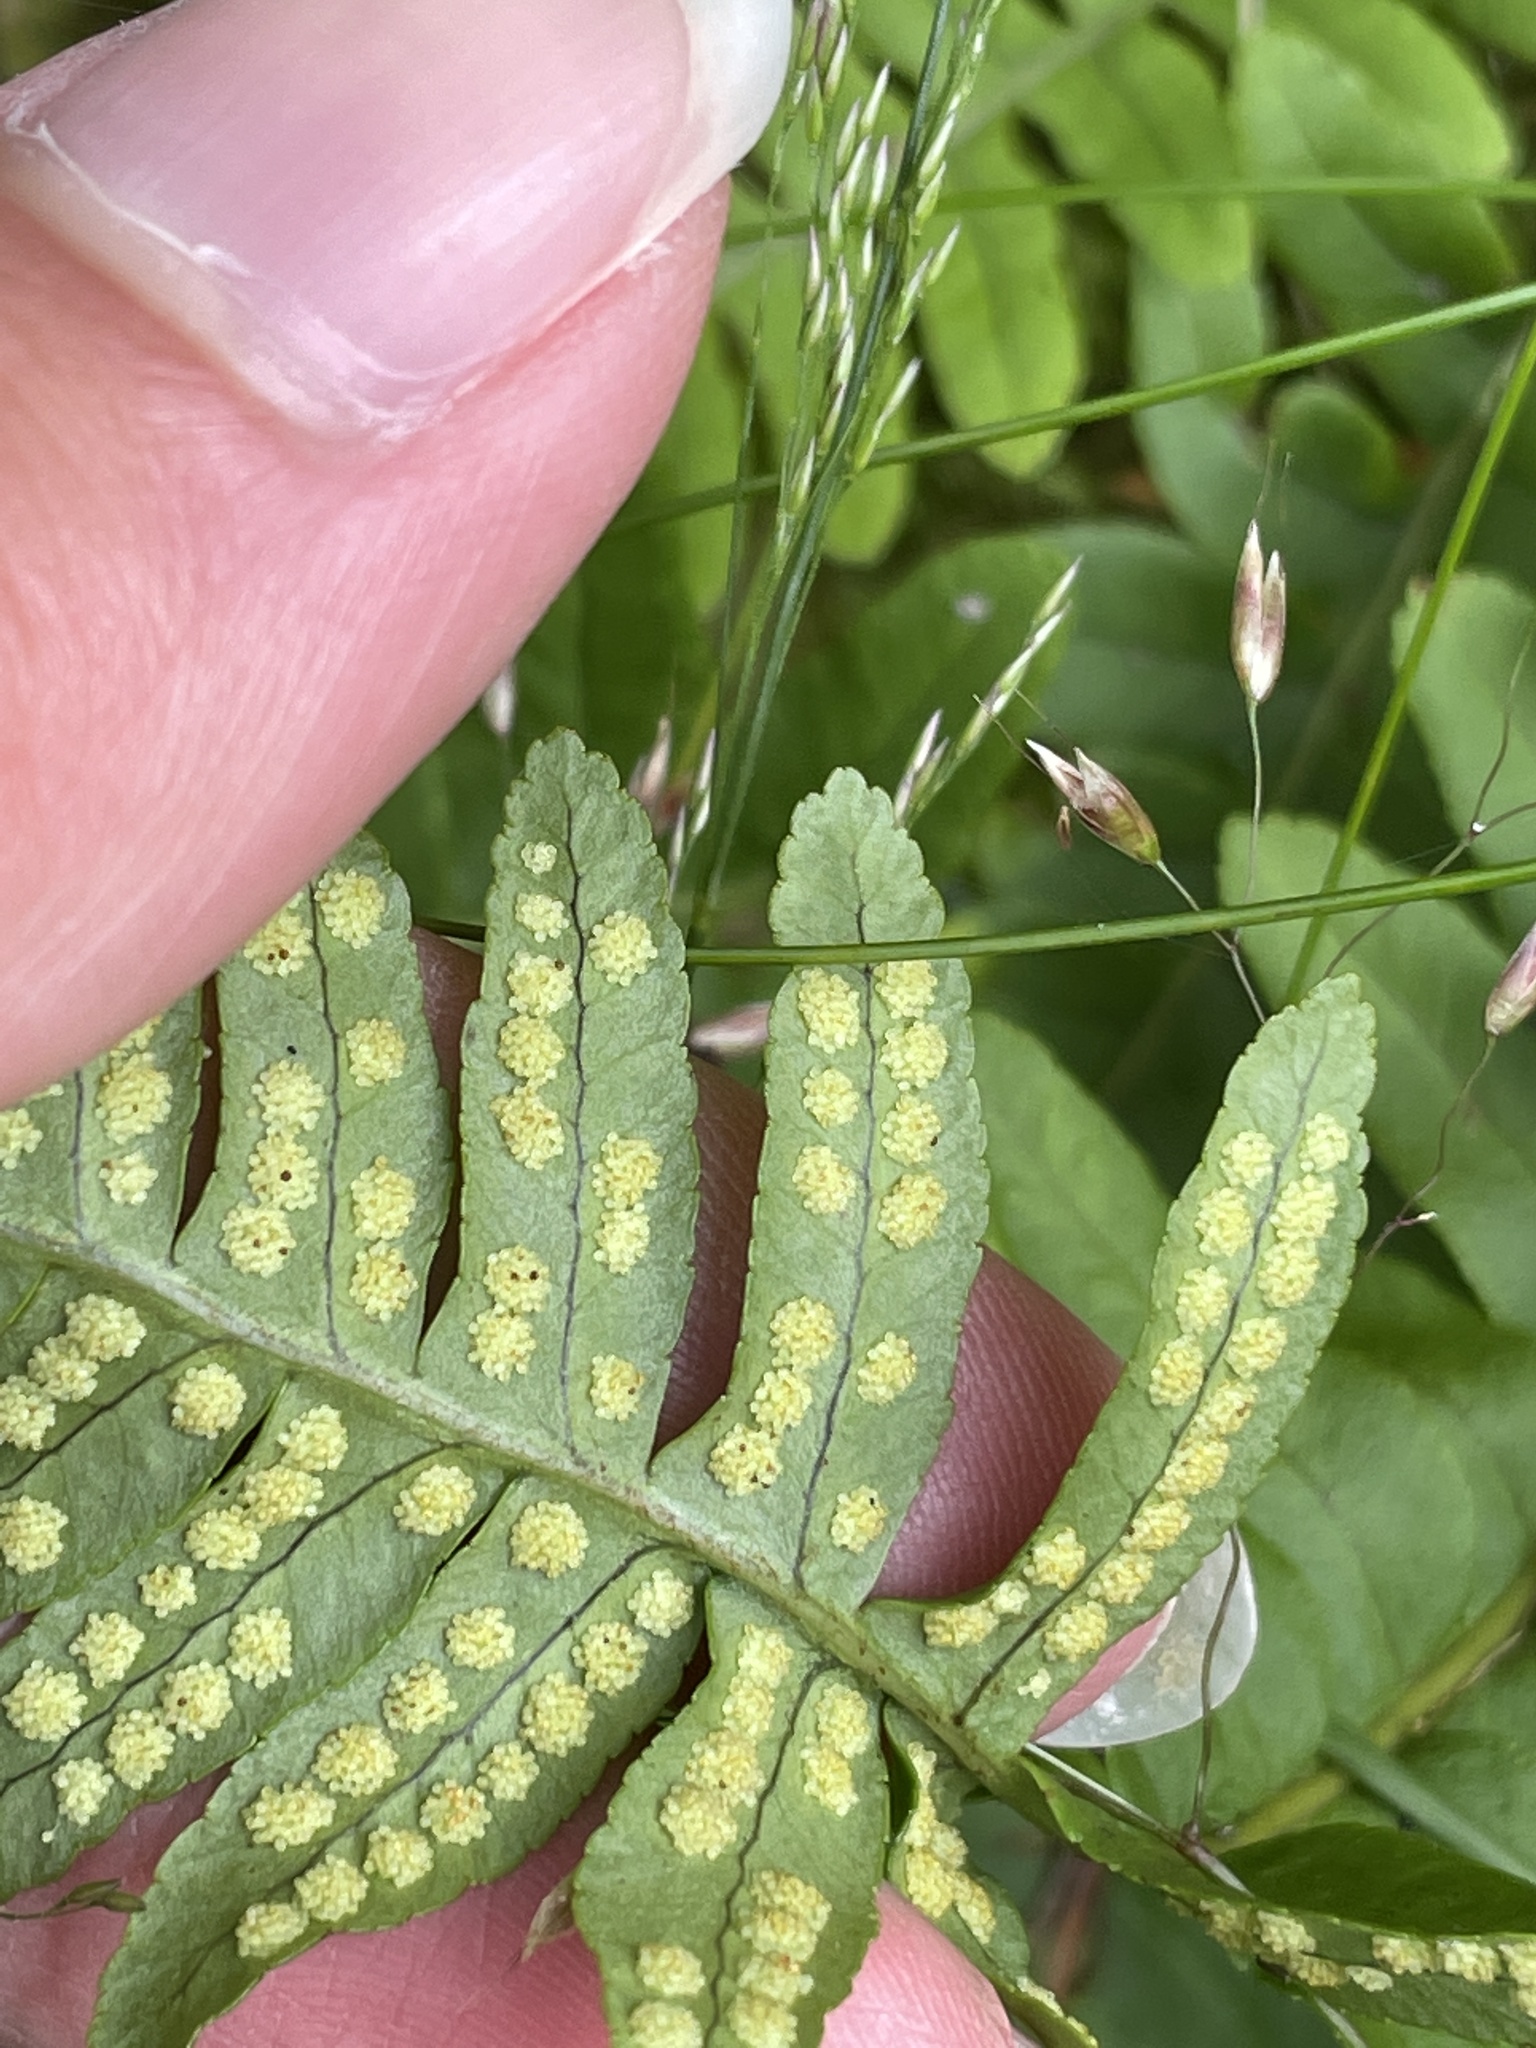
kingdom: Plantae
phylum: Tracheophyta
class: Polypodiopsida
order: Polypodiales
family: Polypodiaceae
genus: Polypodium
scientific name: Polypodium vulgare
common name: Common polypody
